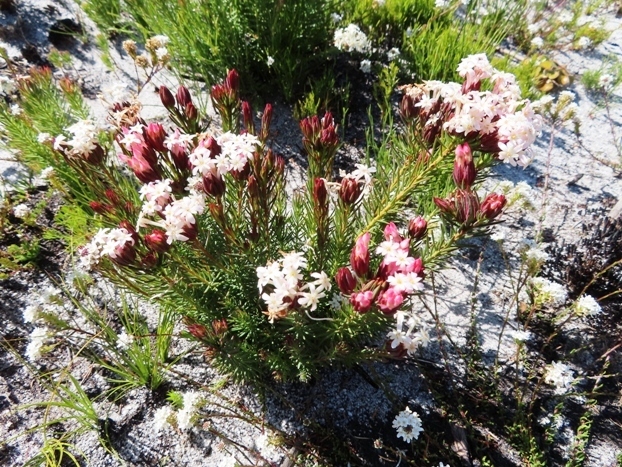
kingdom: Plantae
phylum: Tracheophyta
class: Magnoliopsida
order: Malvales
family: Thymelaeaceae
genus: Gnidia
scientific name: Gnidia pinifolia
